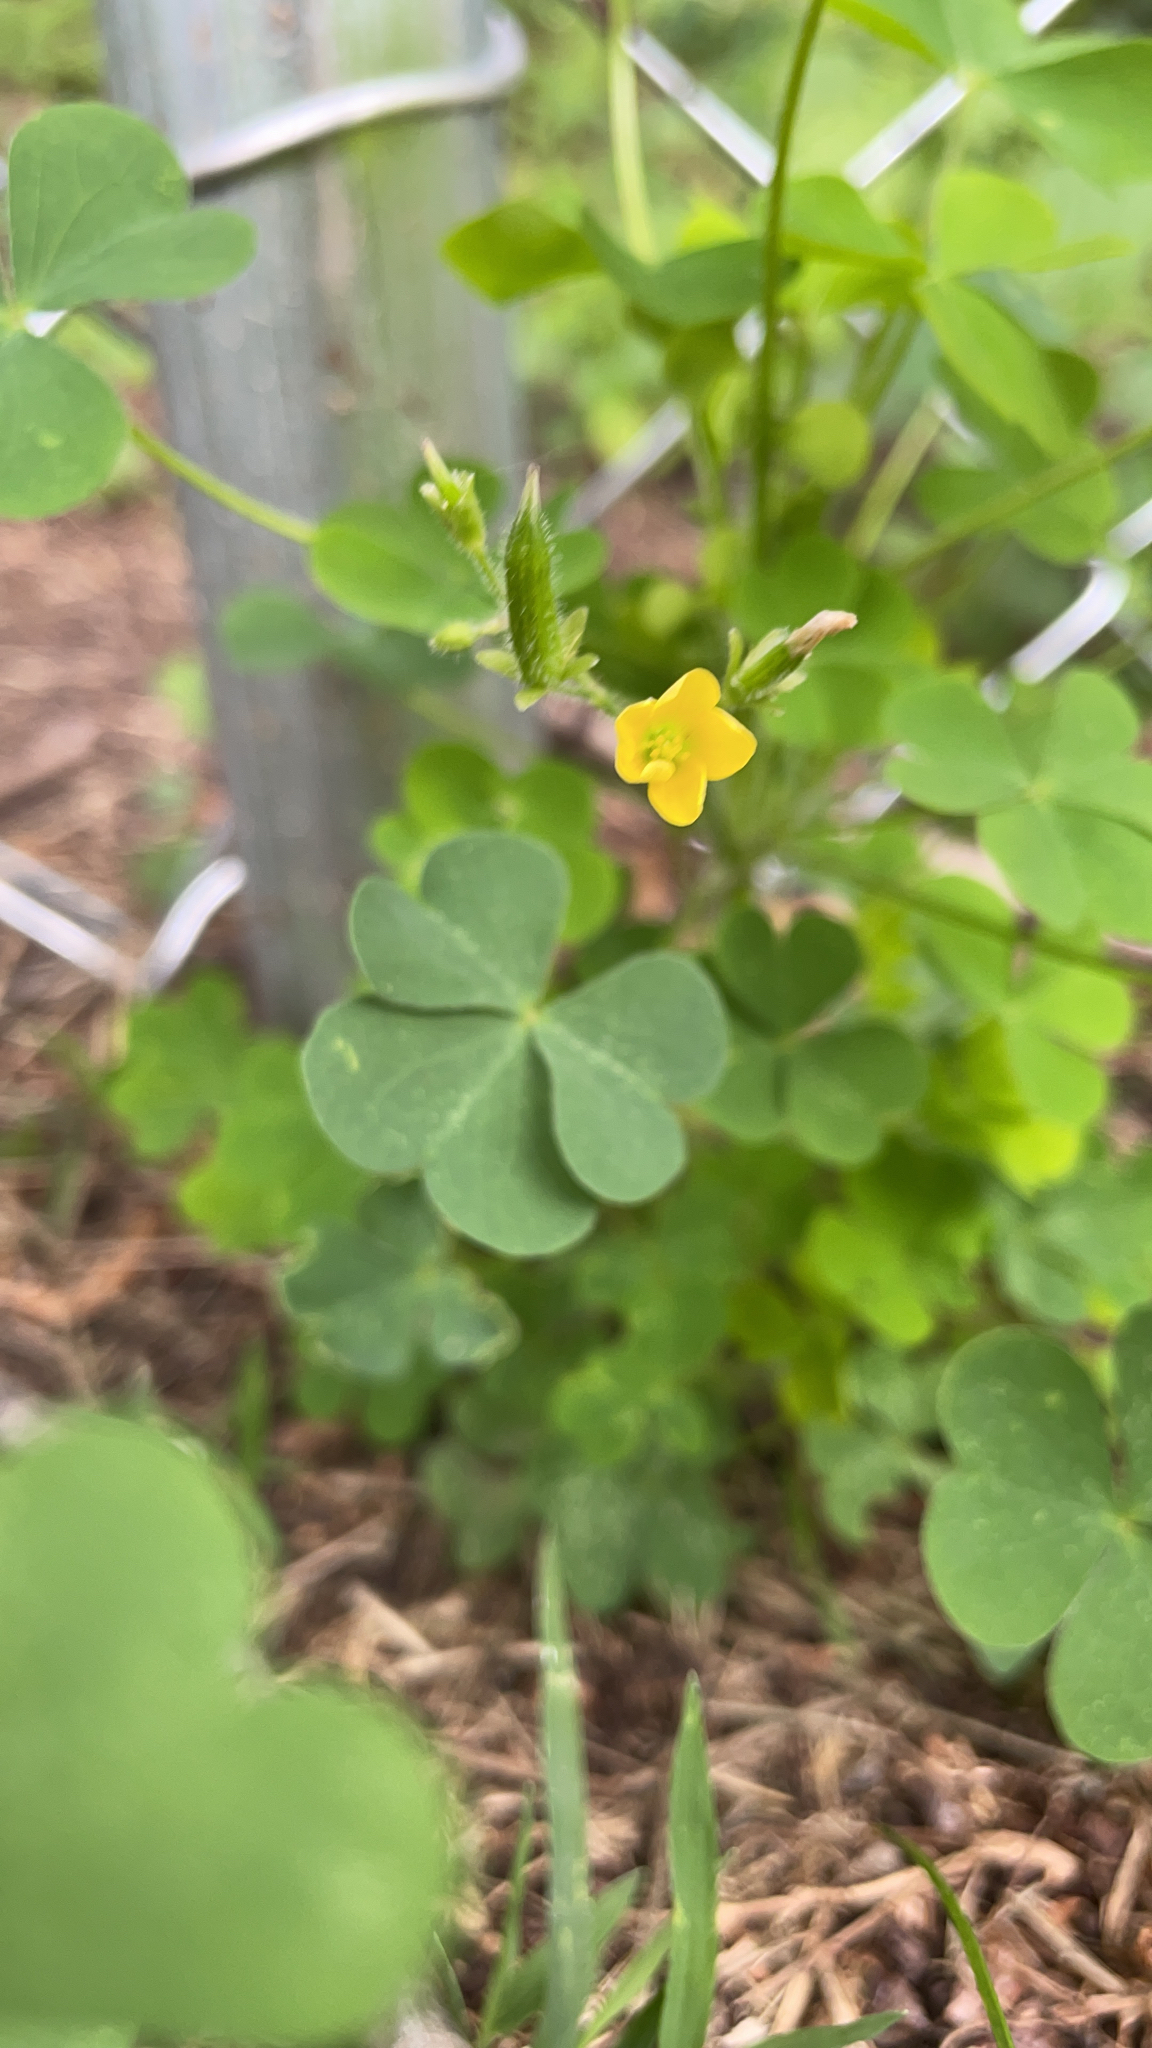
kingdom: Plantae
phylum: Tracheophyta
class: Magnoliopsida
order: Oxalidales
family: Oxalidaceae
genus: Oxalis
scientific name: Oxalis stricta
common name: Upright yellow-sorrel
